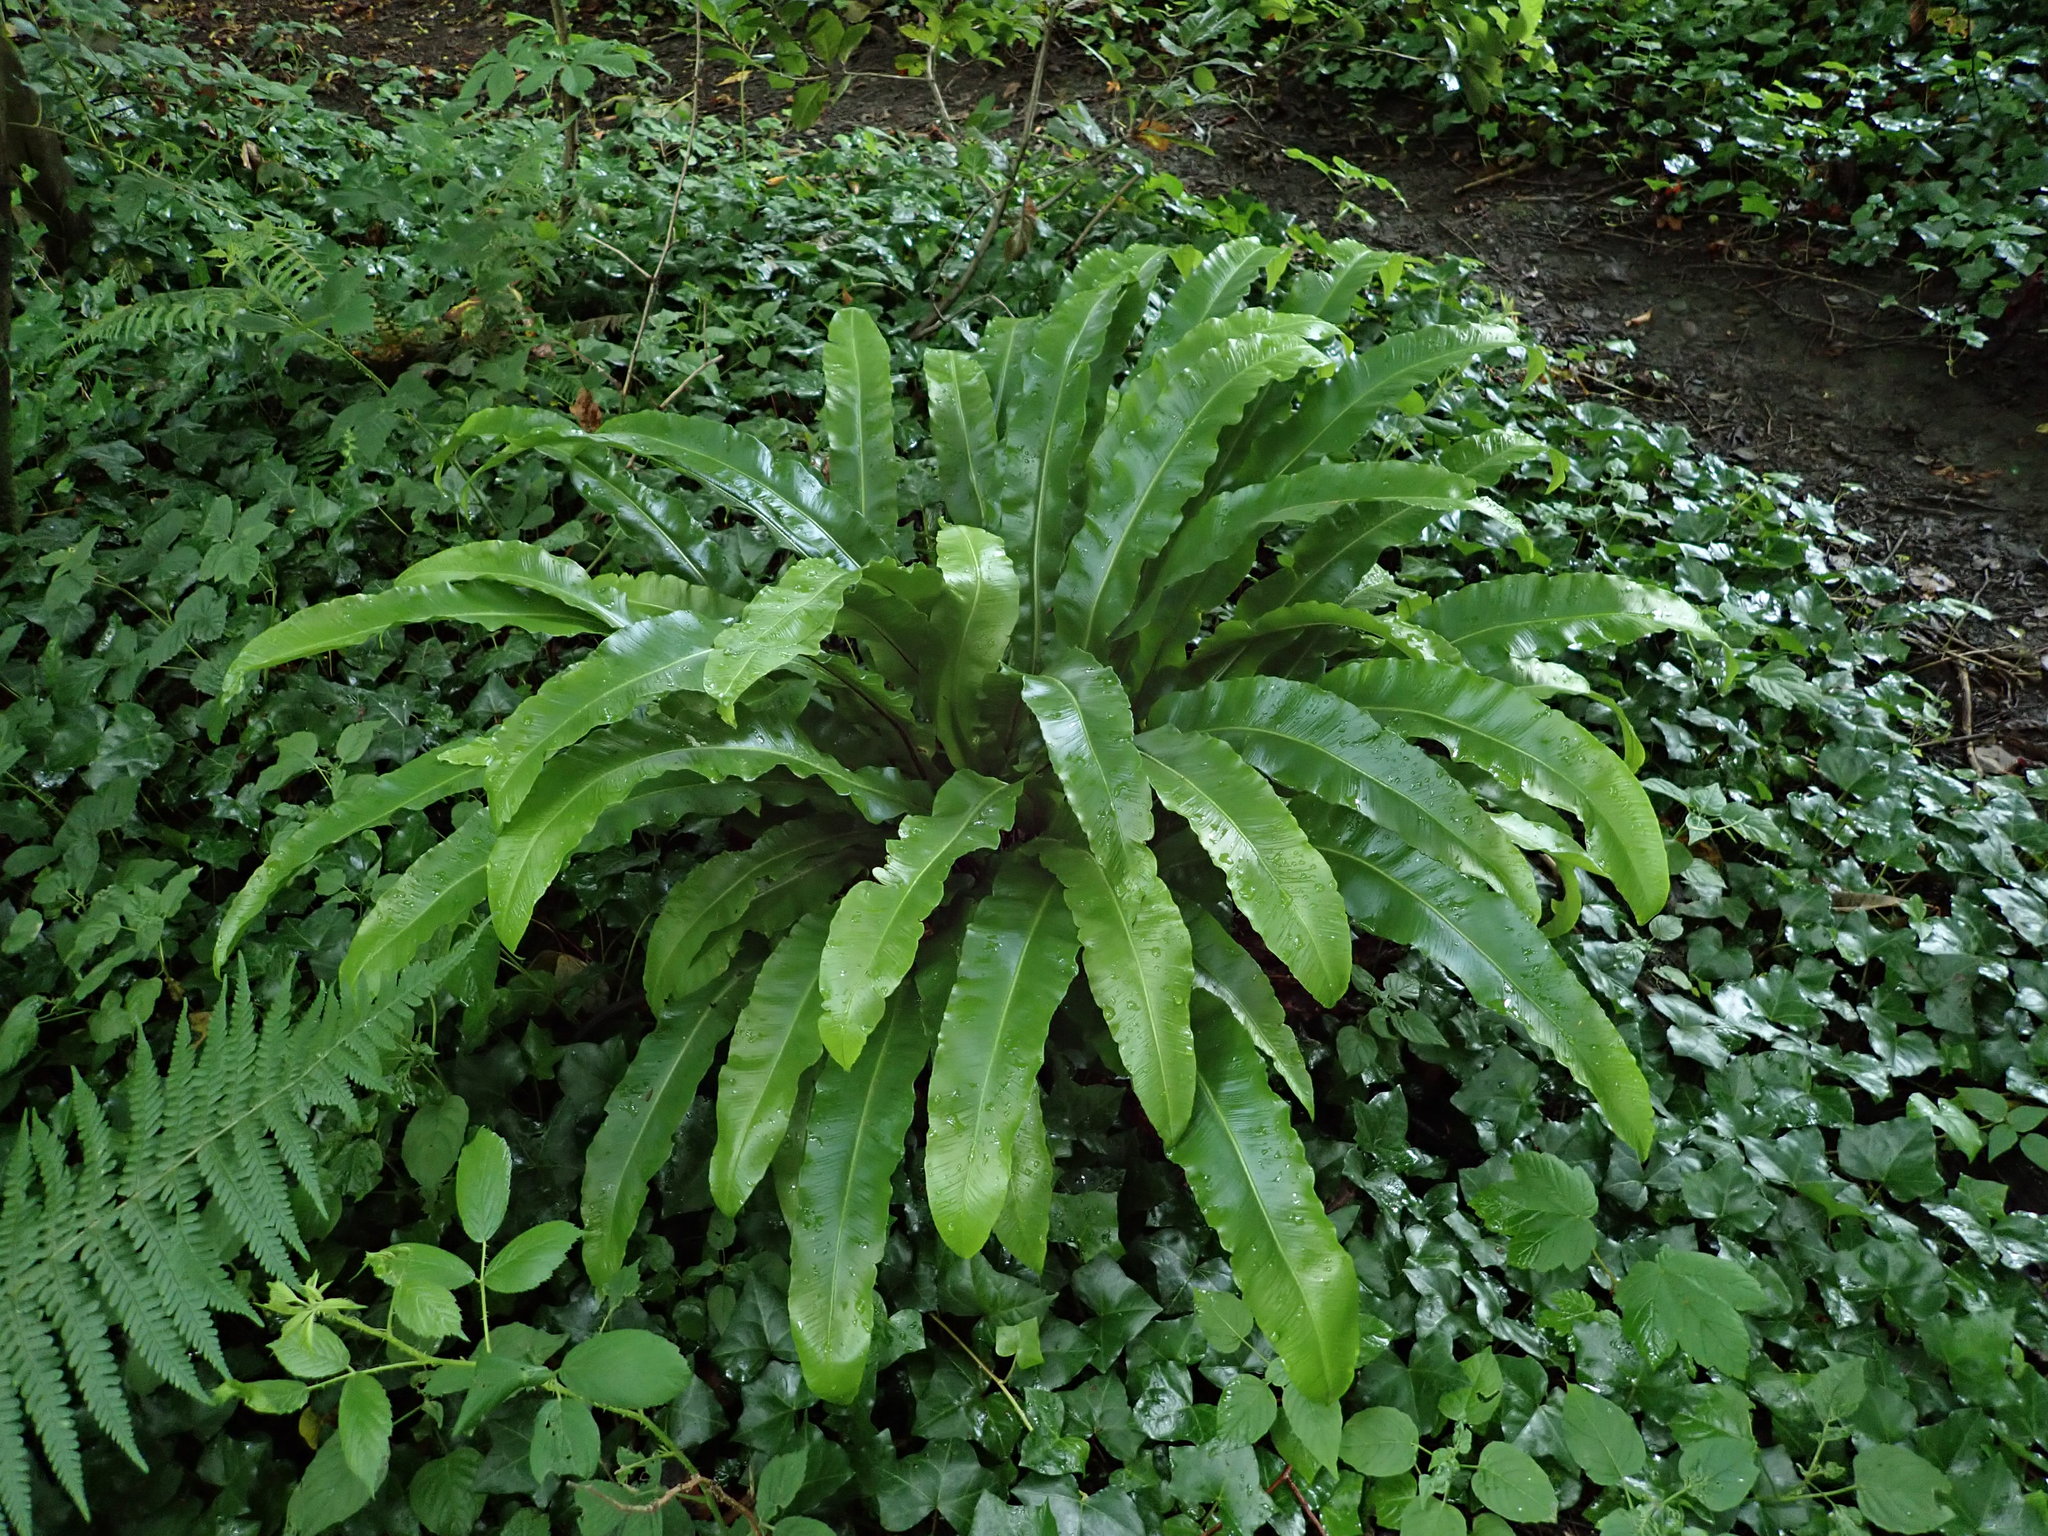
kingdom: Plantae
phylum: Tracheophyta
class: Polypodiopsida
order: Polypodiales
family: Aspleniaceae
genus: Asplenium
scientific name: Asplenium scolopendrium
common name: Hart's-tongue fern
